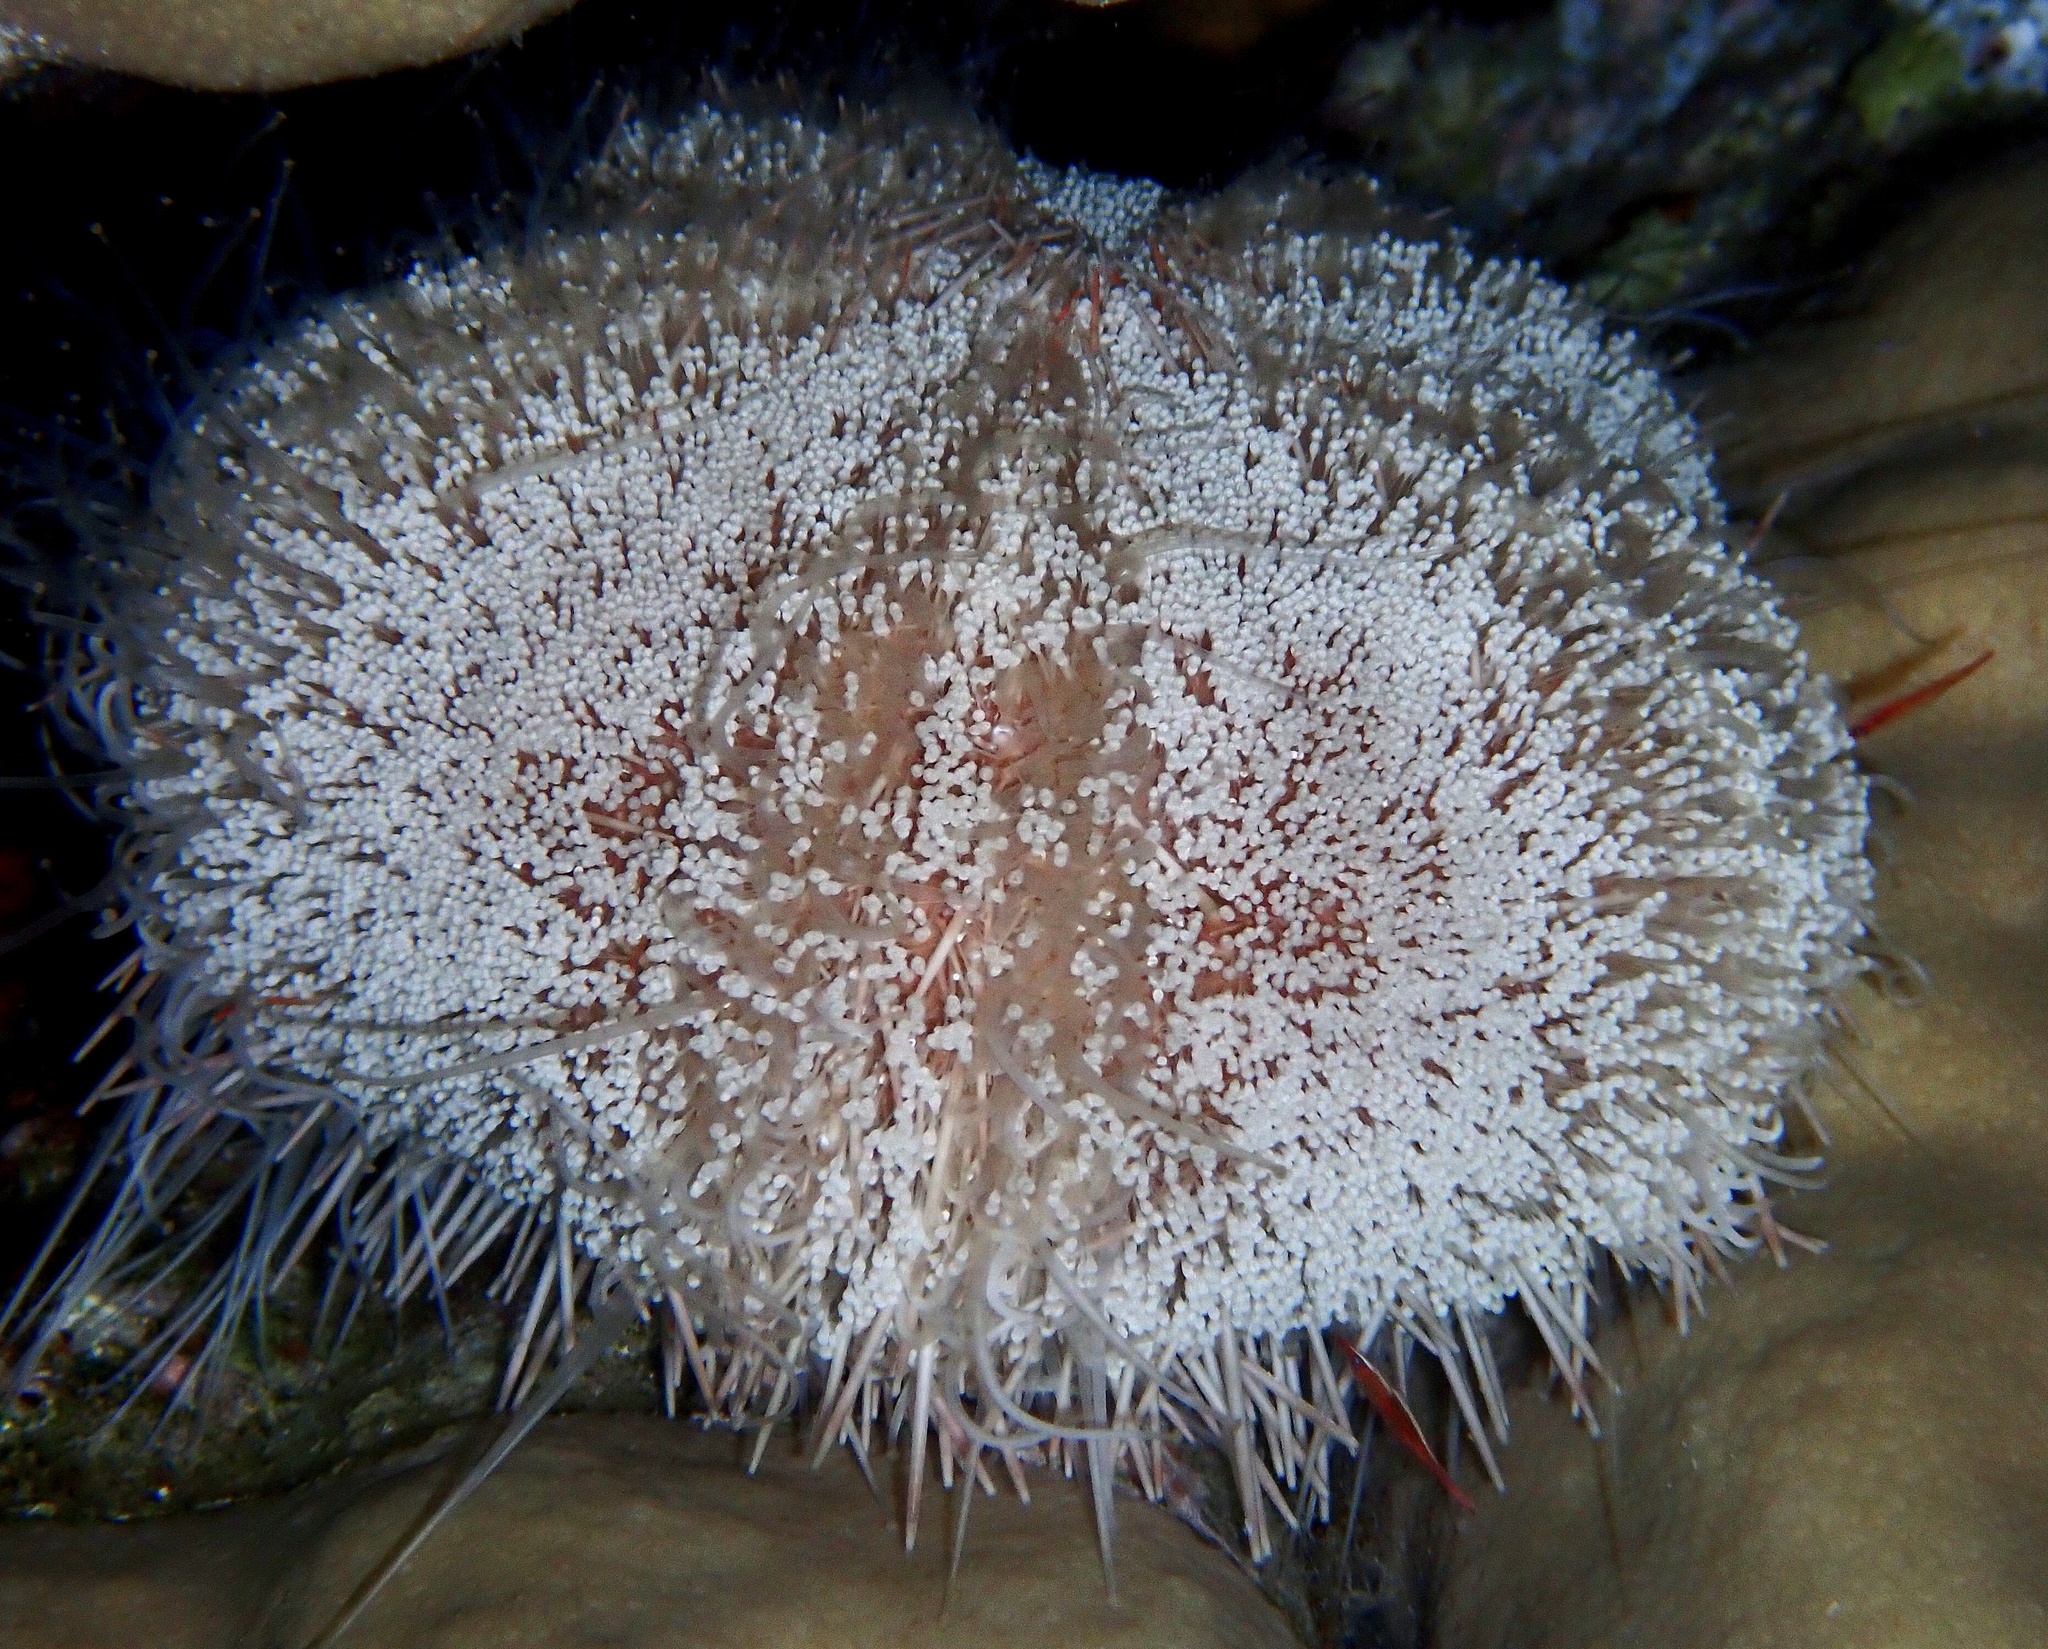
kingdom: Animalia
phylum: Echinodermata
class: Echinoidea
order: Camarodonta
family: Toxopneustidae
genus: Tripneustes
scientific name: Tripneustes gratilla
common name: Bischofsmützenseeigel
